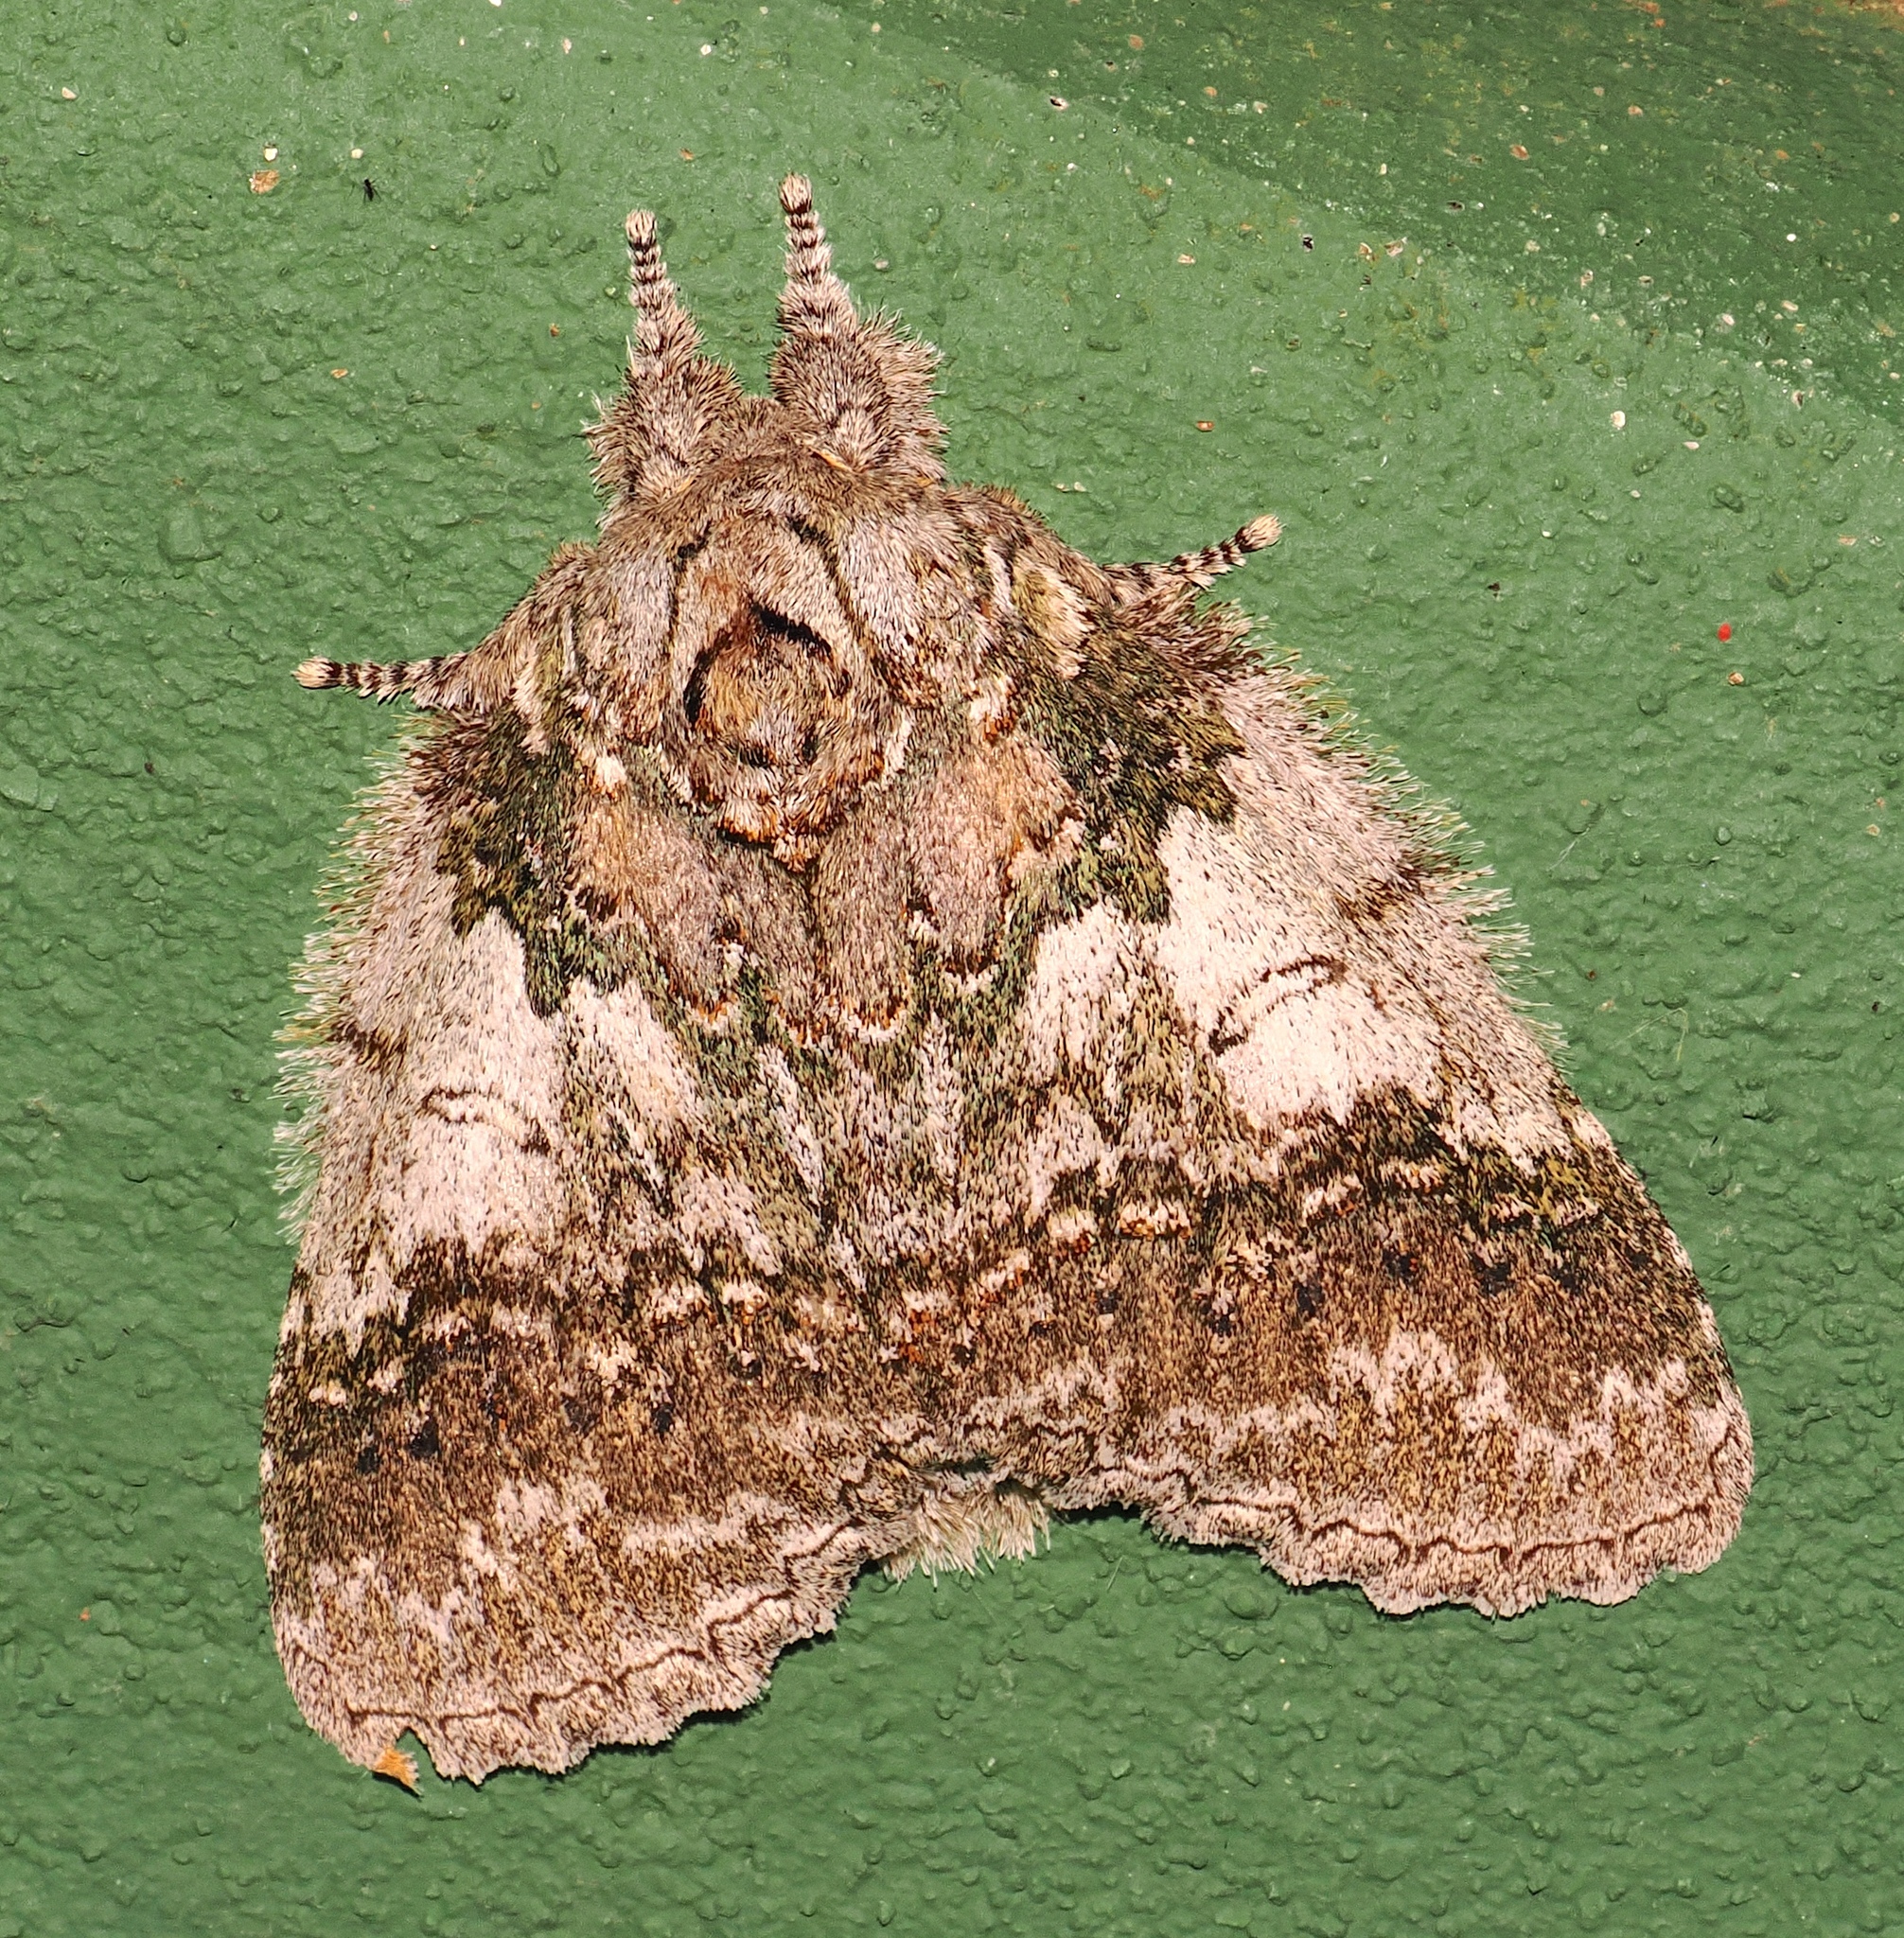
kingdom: Animalia
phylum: Arthropoda
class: Insecta
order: Lepidoptera
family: Notodontidae
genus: Anurocampa
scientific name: Anurocampa mingens
